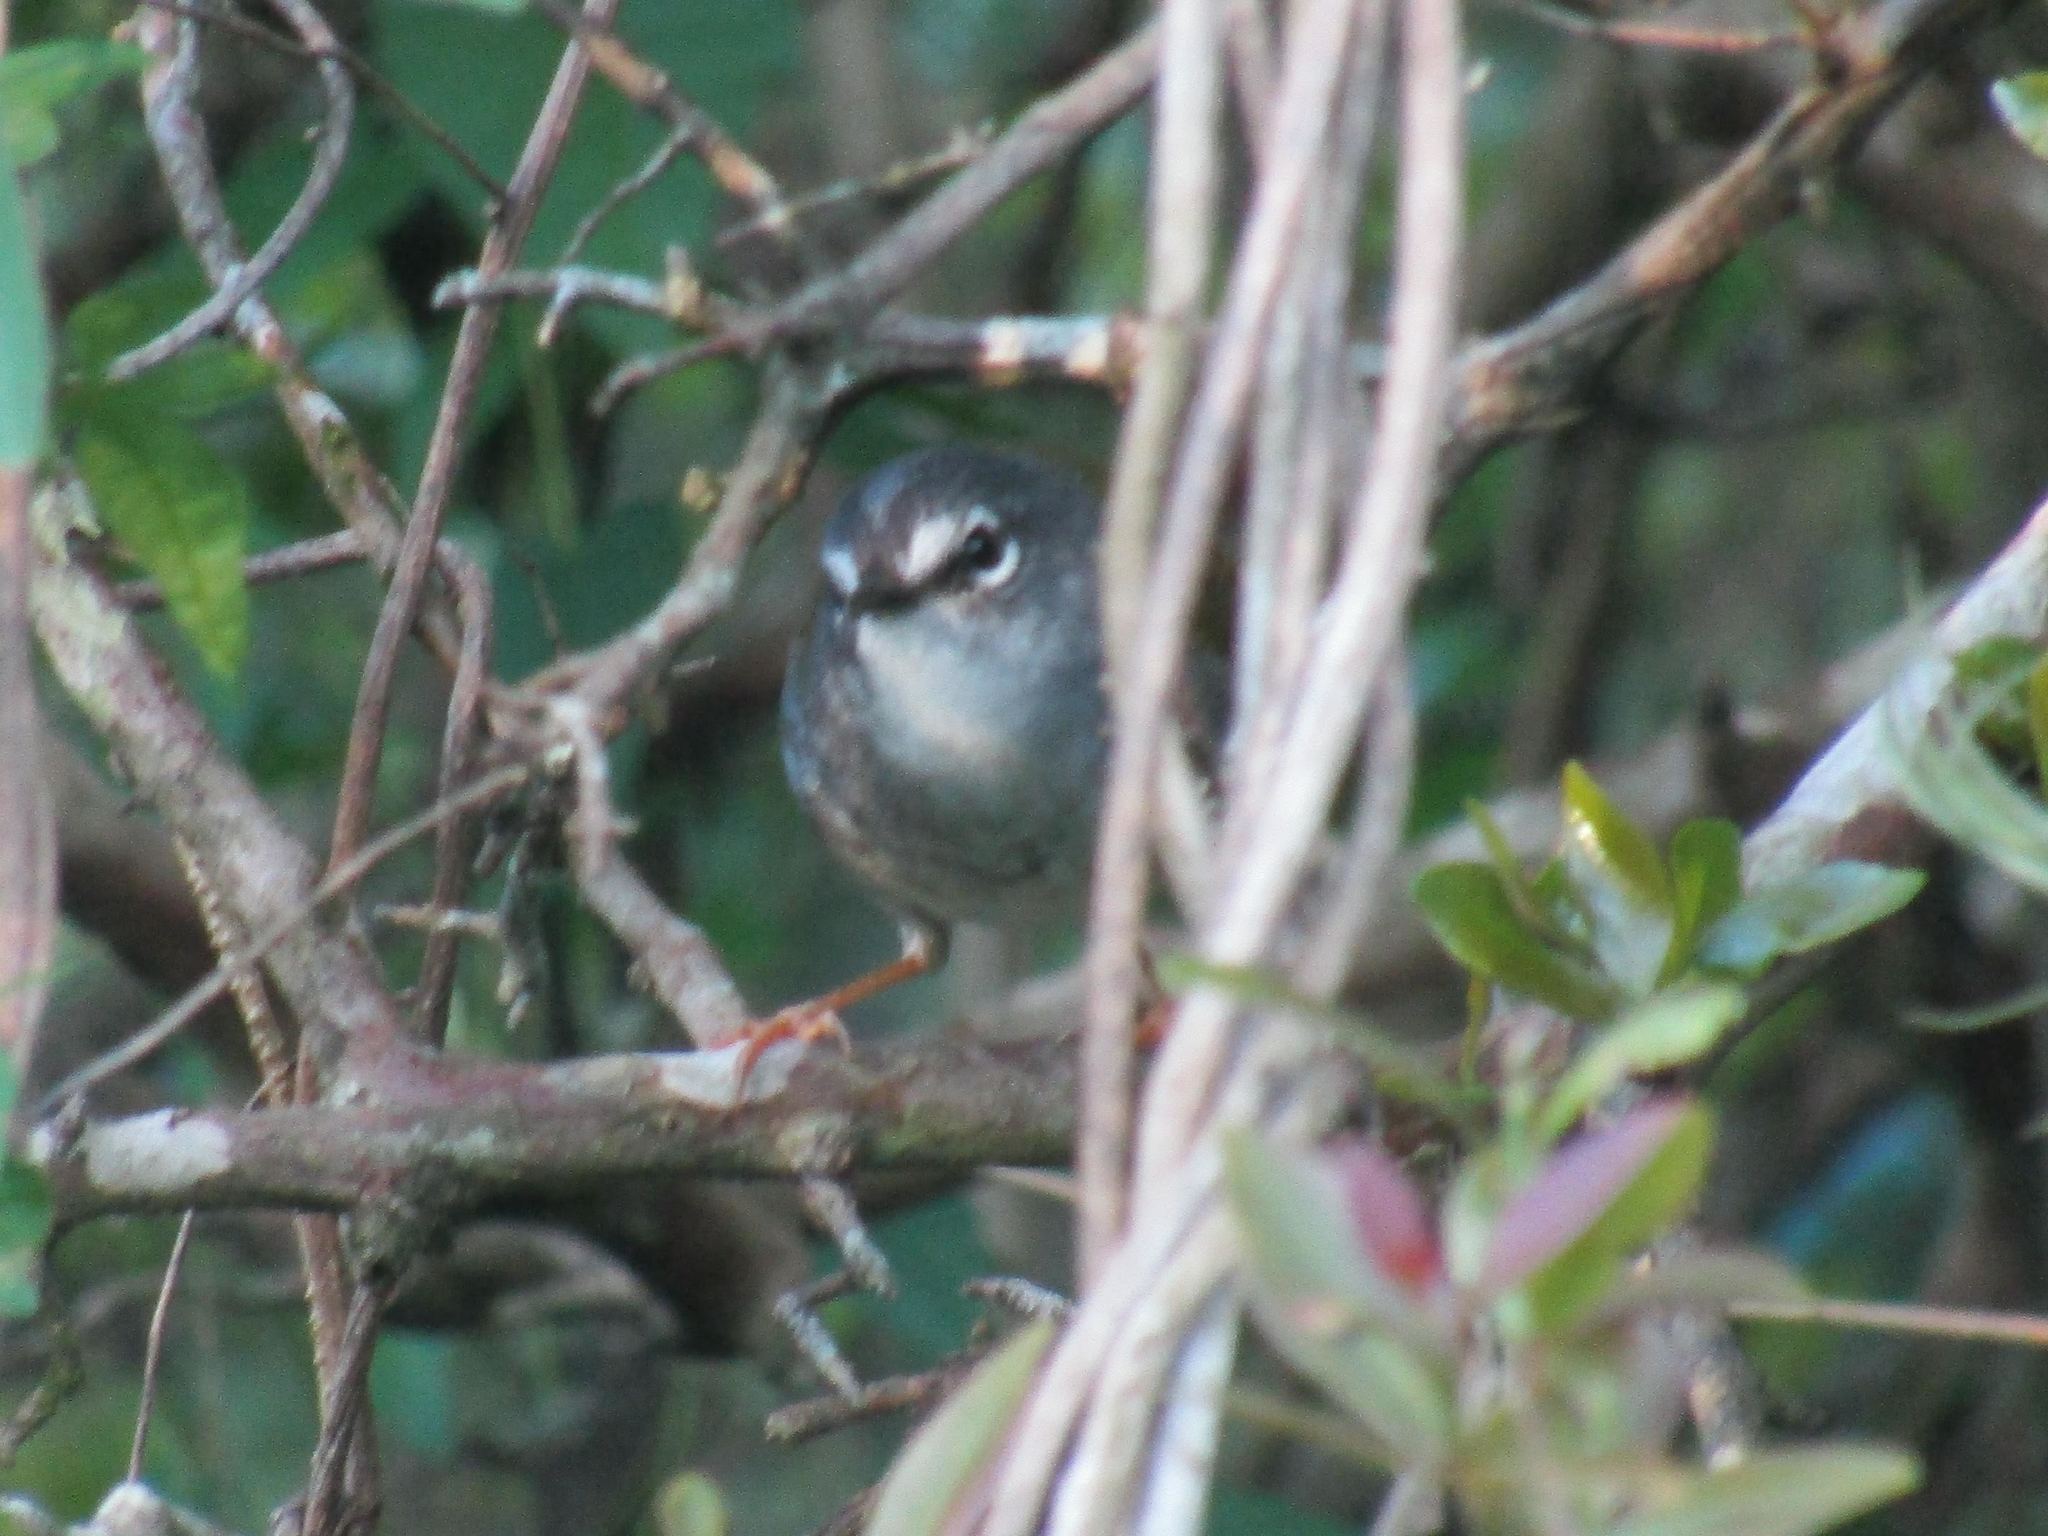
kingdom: Animalia
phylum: Chordata
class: Aves
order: Passeriformes
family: Parulidae
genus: Myiothlypis
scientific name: Myiothlypis leucoblephara
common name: White-rimmed warbler
